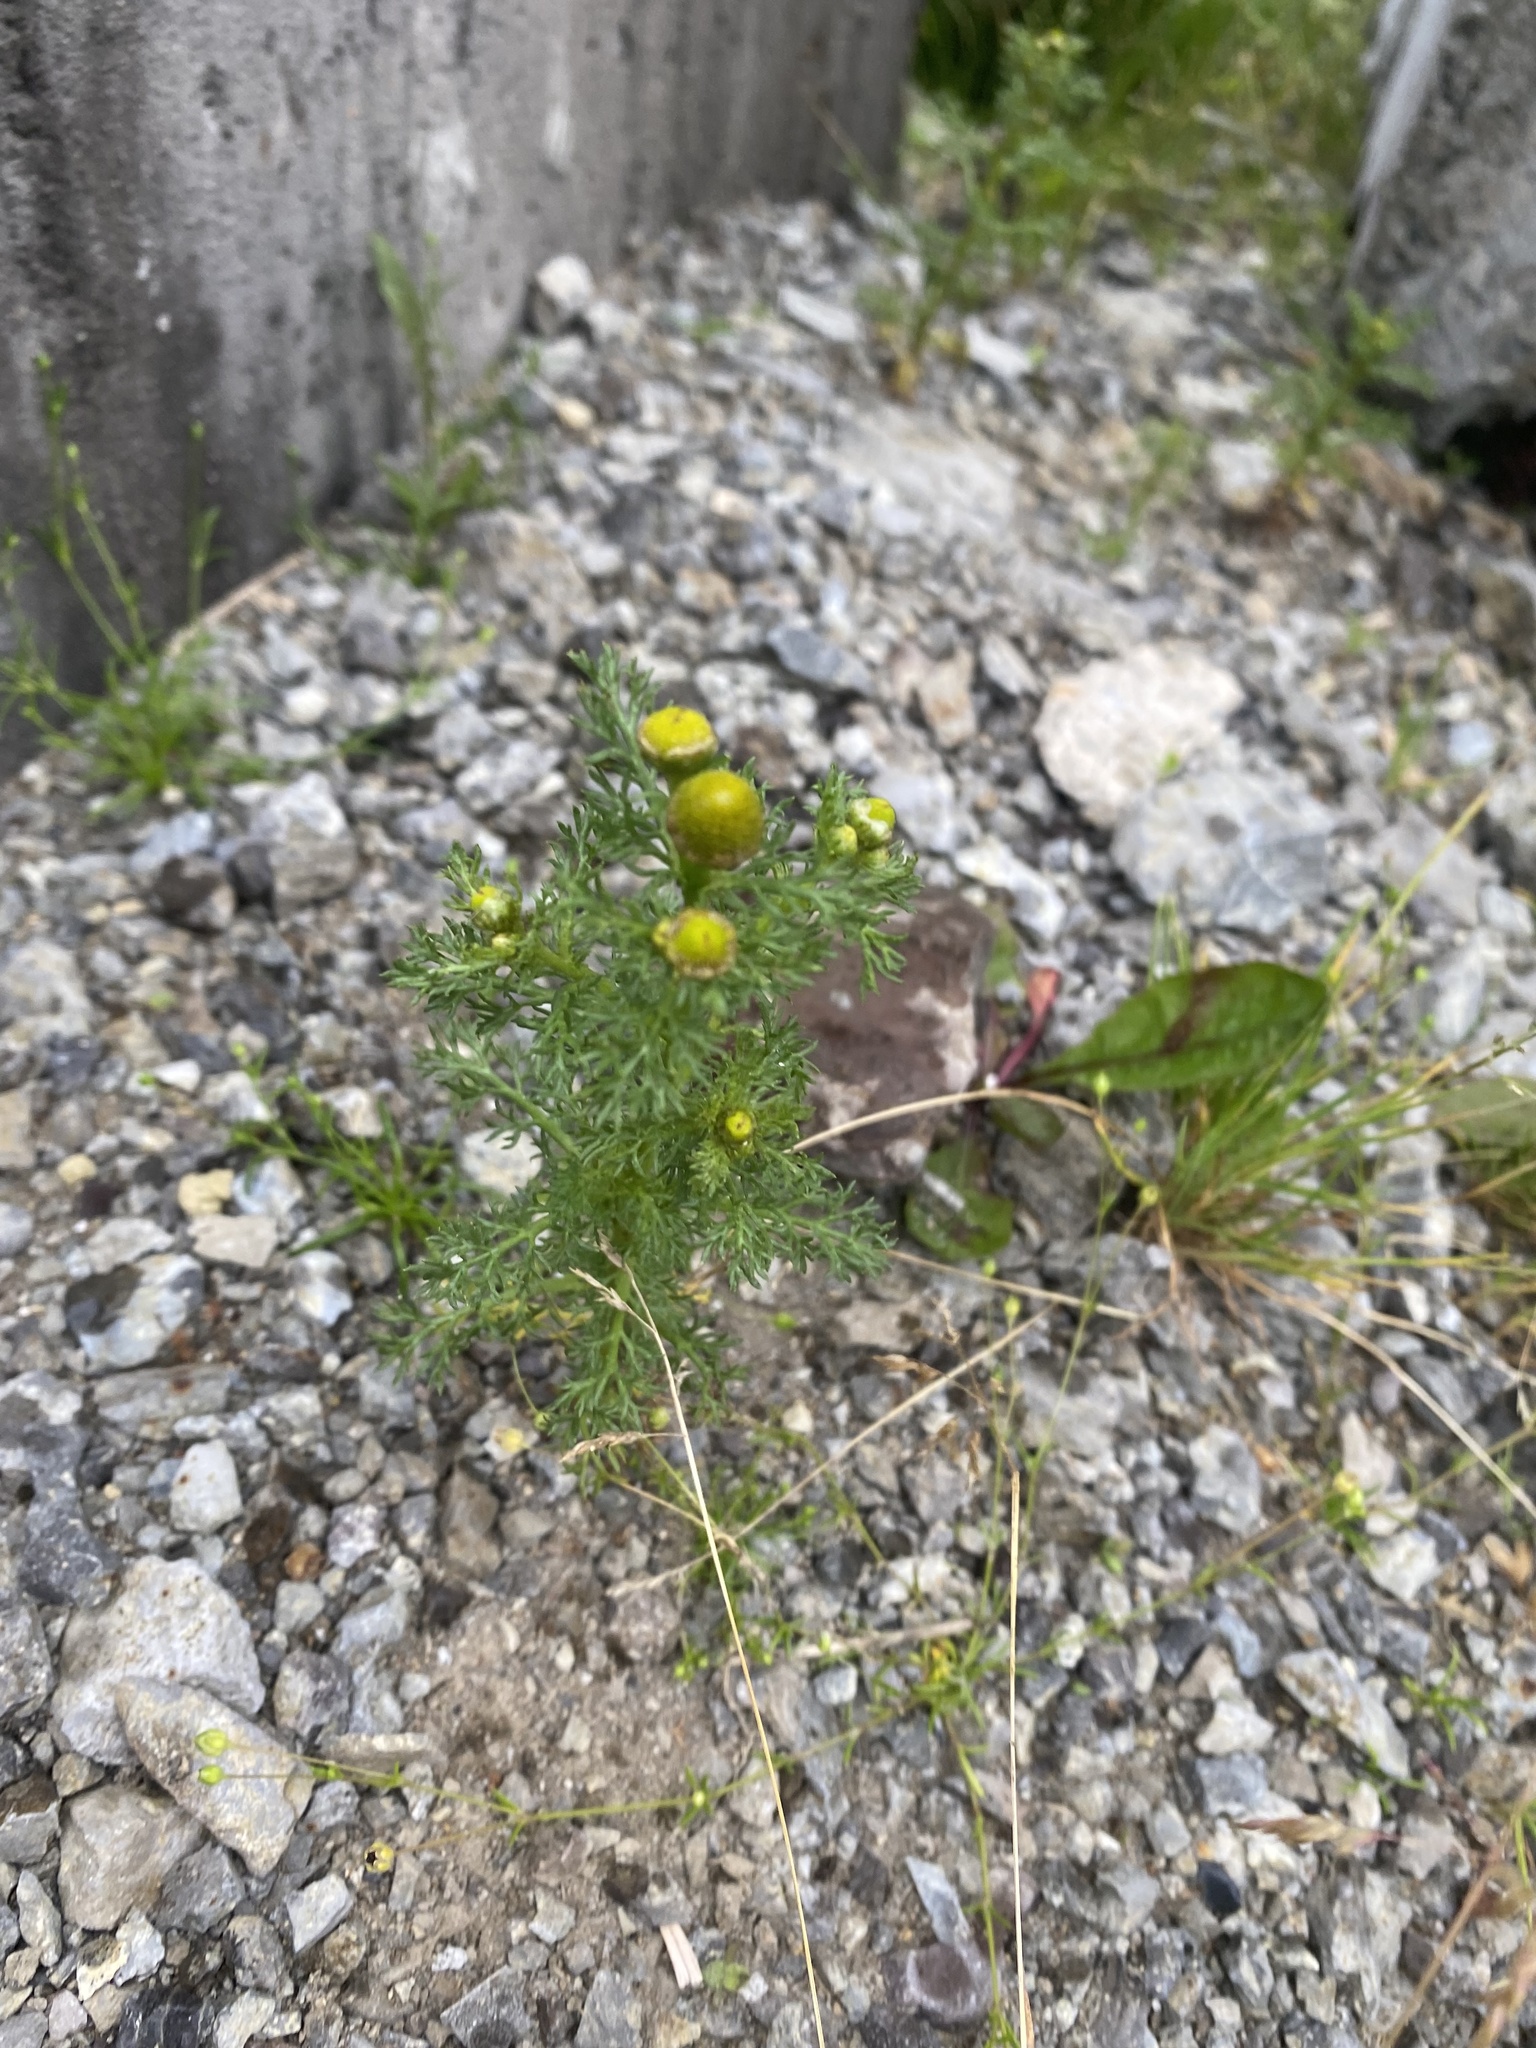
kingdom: Plantae
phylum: Tracheophyta
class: Magnoliopsida
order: Asterales
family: Asteraceae
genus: Matricaria
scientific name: Matricaria discoidea
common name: Disc mayweed
